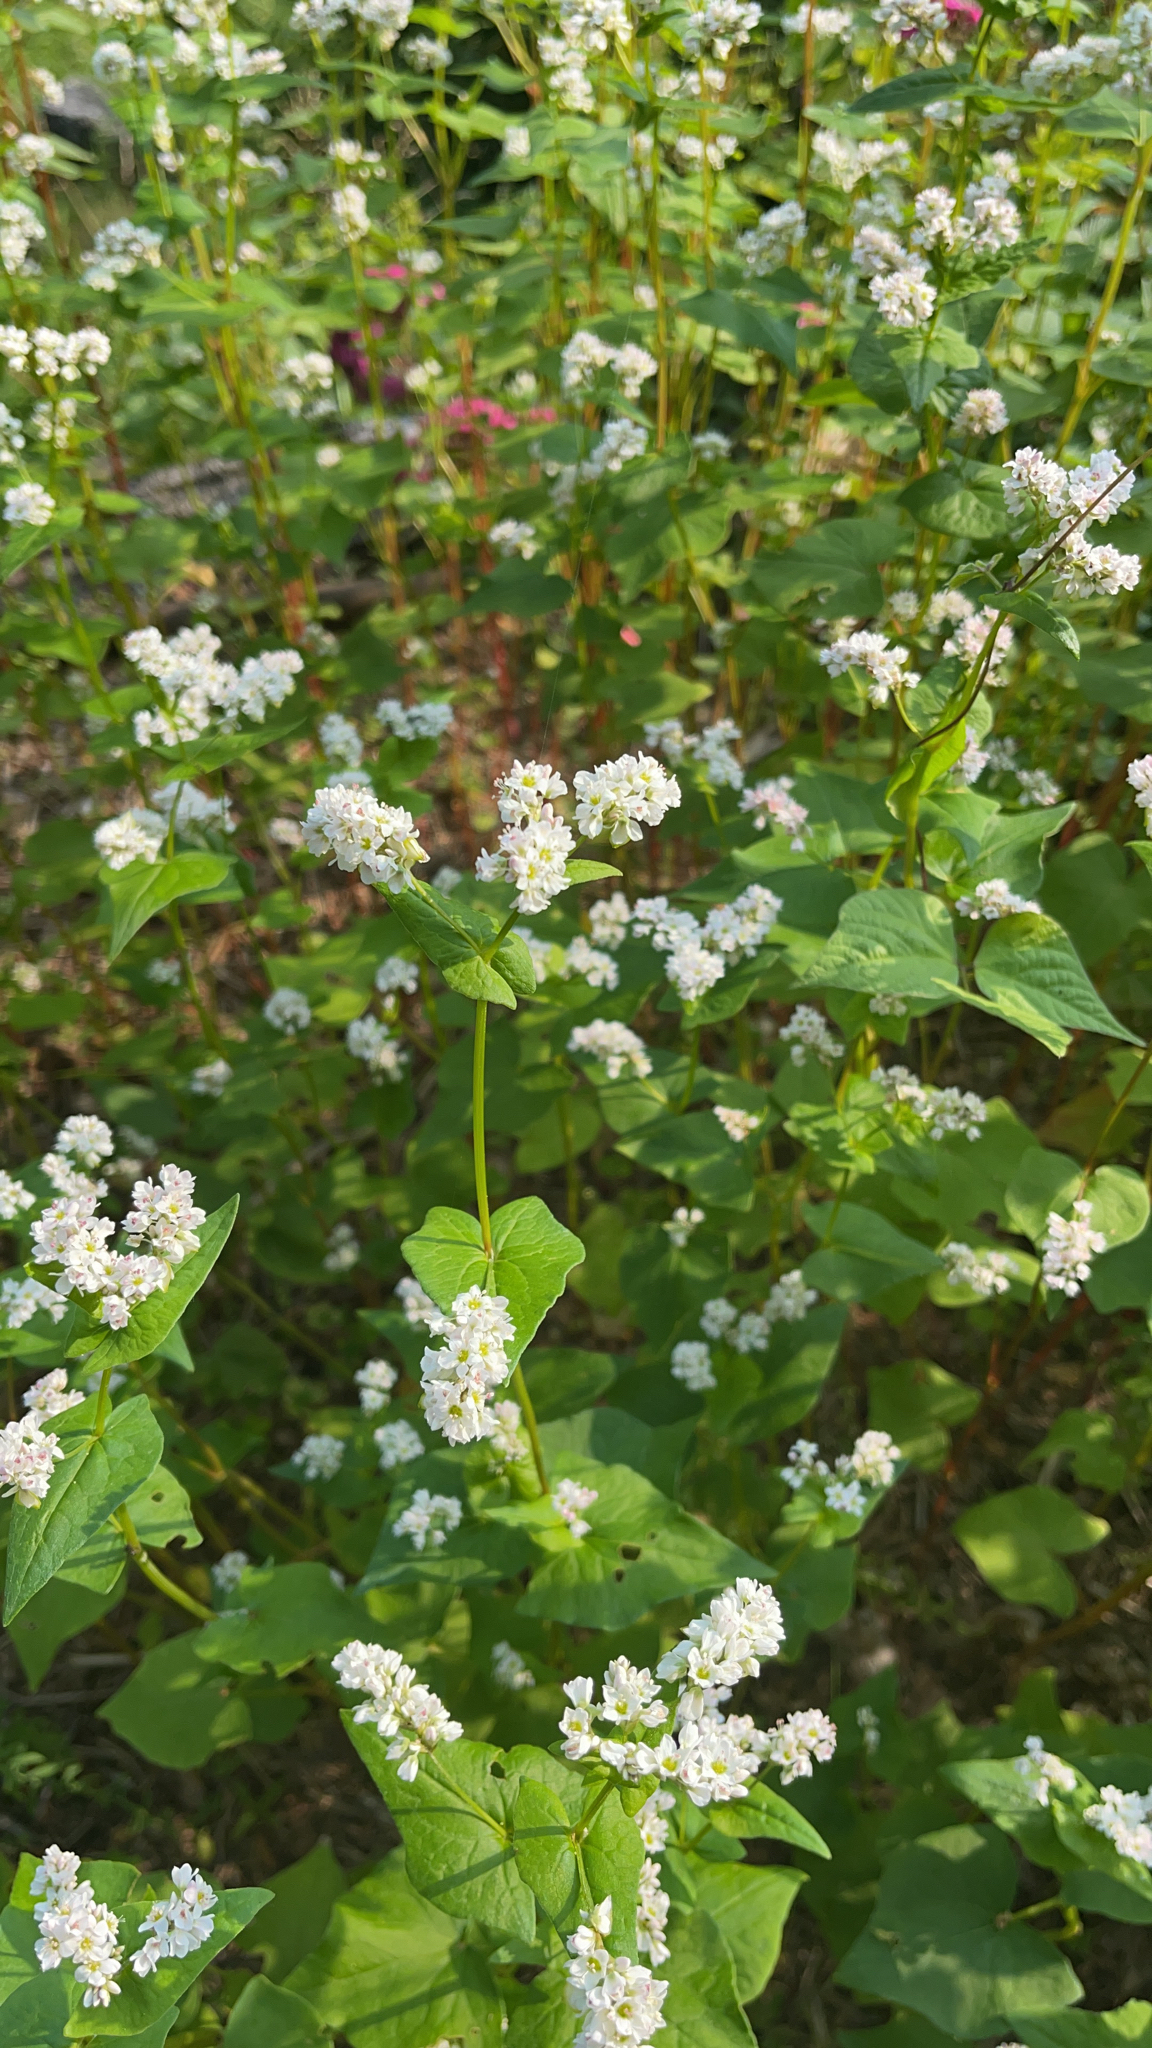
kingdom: Plantae
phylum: Tracheophyta
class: Magnoliopsida
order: Caryophyllales
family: Polygonaceae
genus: Fagopyrum
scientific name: Fagopyrum esculentum
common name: Buckwheat
